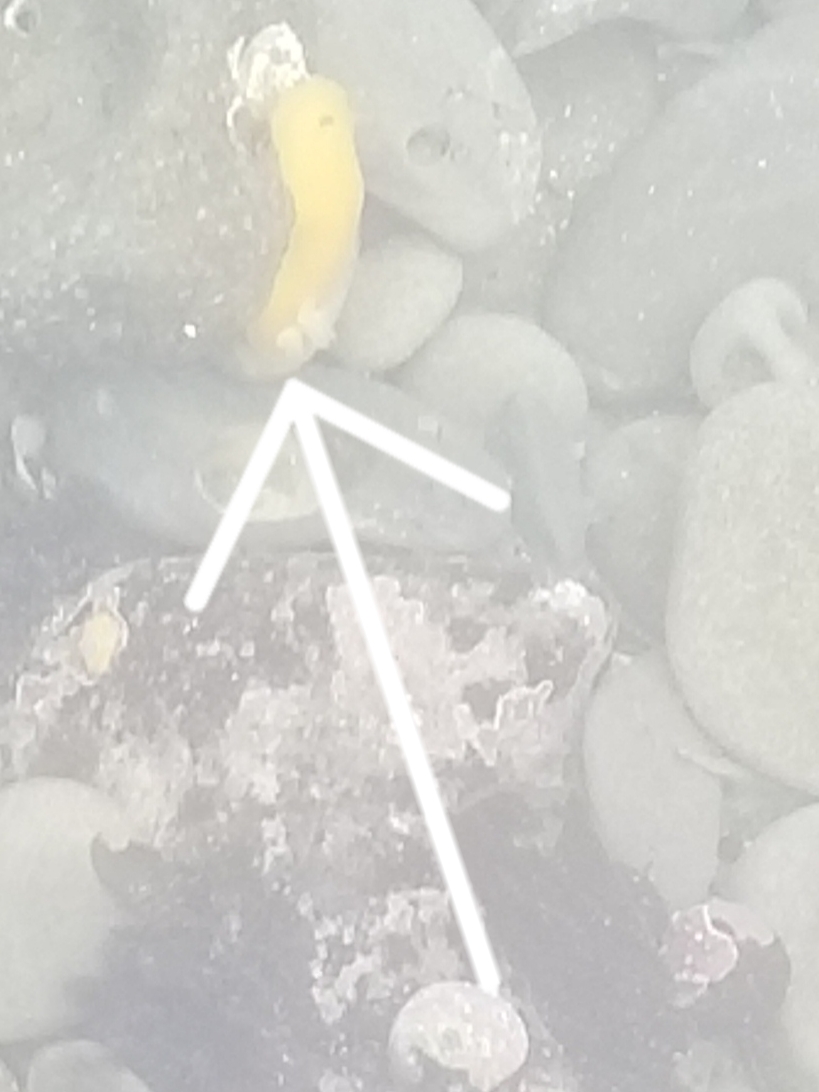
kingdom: Animalia
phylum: Mollusca
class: Gastropoda
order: Nudibranchia
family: Dendrodorididae
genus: Doriopsilla
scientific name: Doriopsilla fulva
